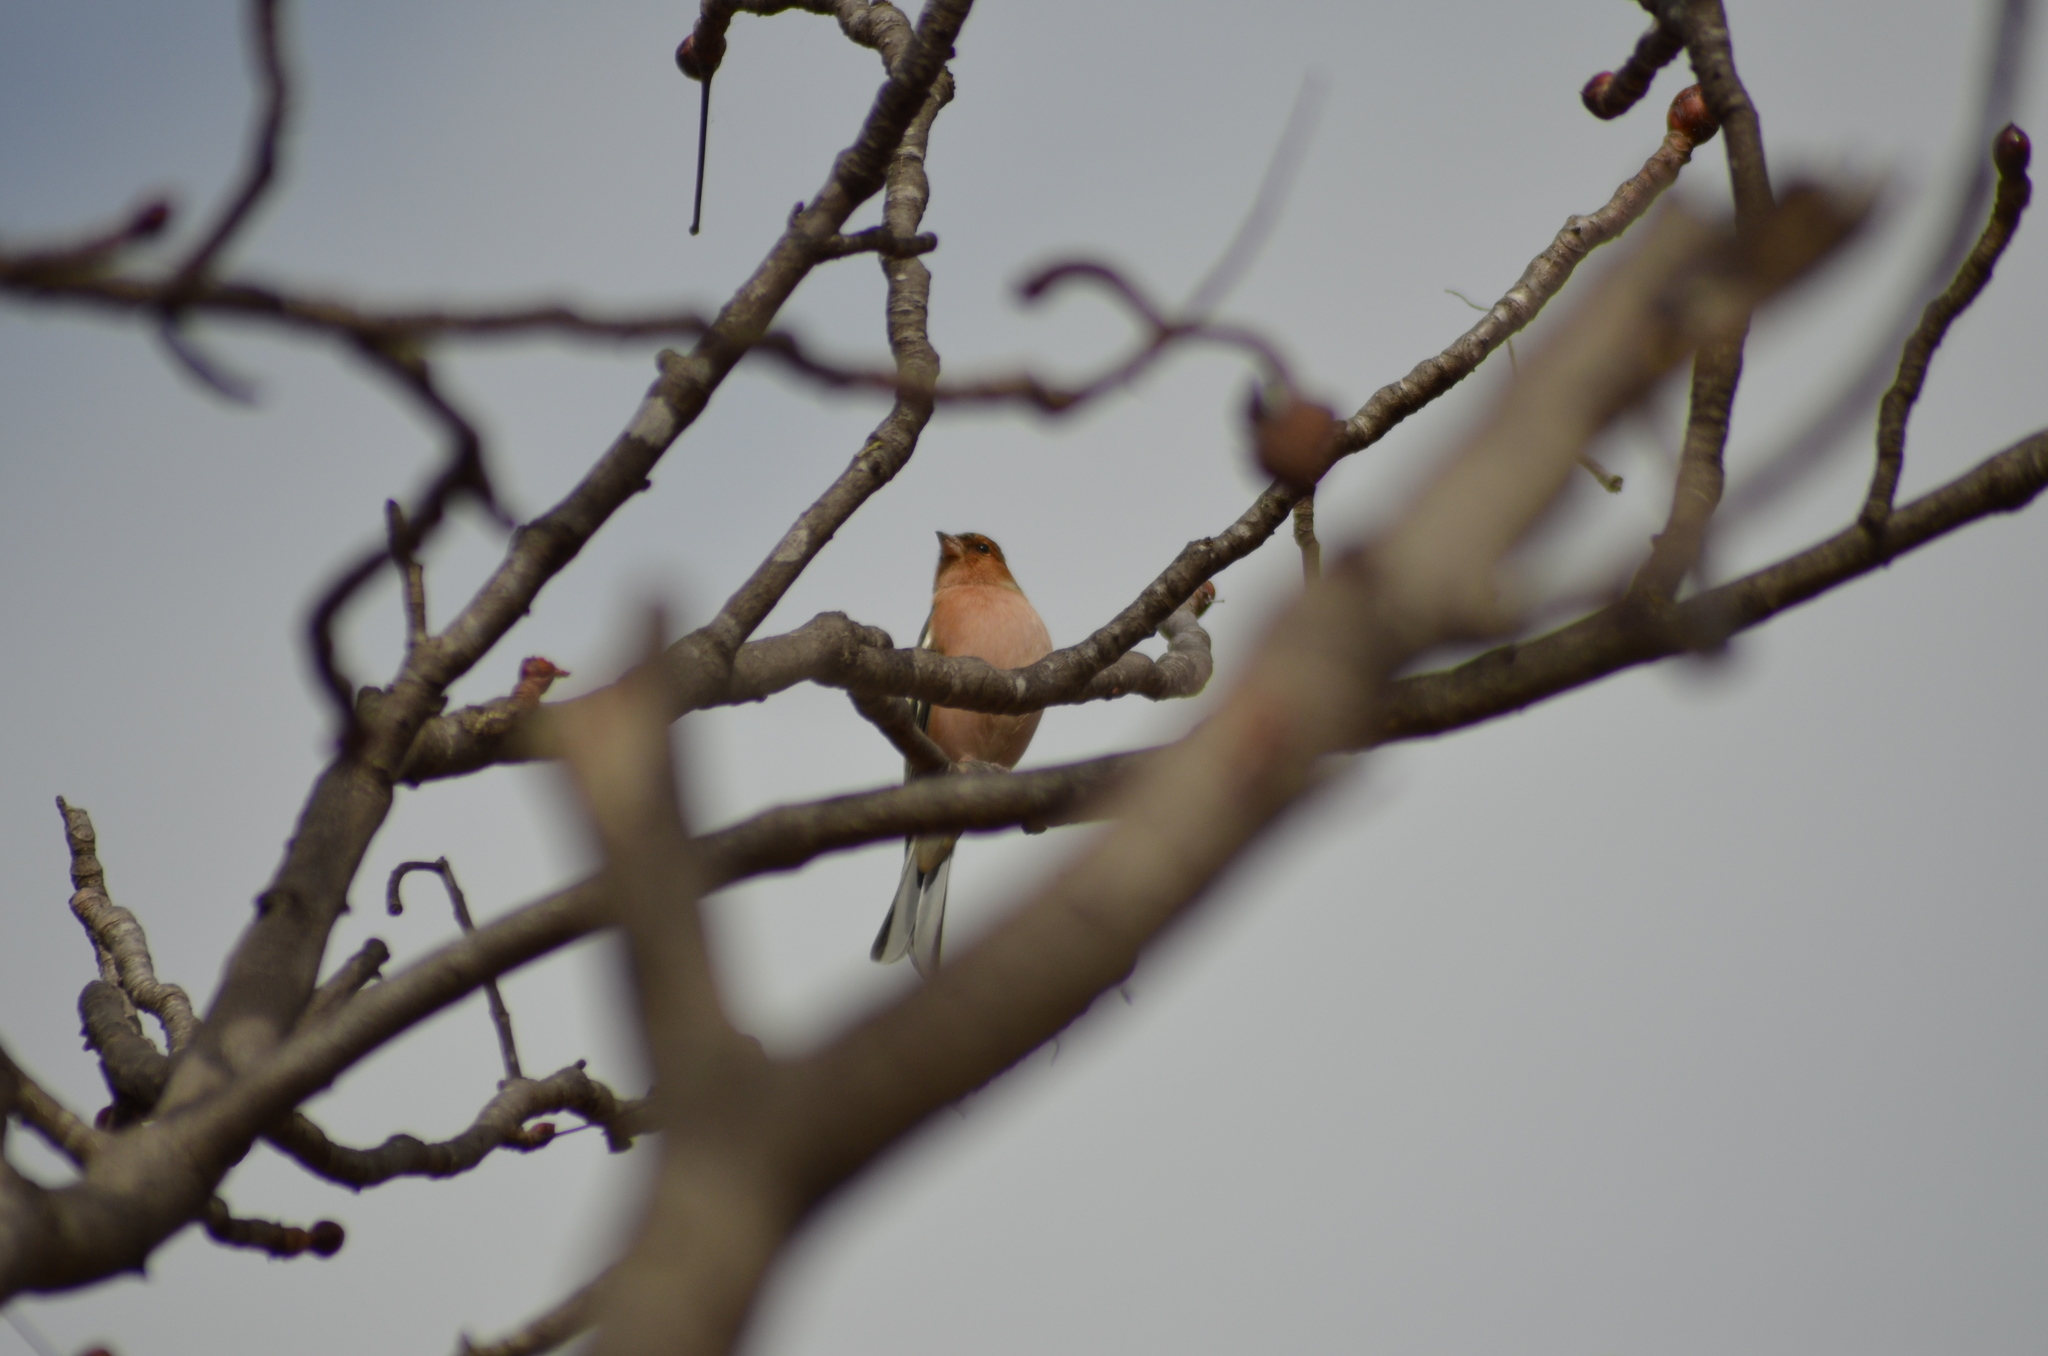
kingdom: Animalia
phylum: Chordata
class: Aves
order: Passeriformes
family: Fringillidae
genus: Fringilla
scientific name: Fringilla coelebs
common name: Common chaffinch
